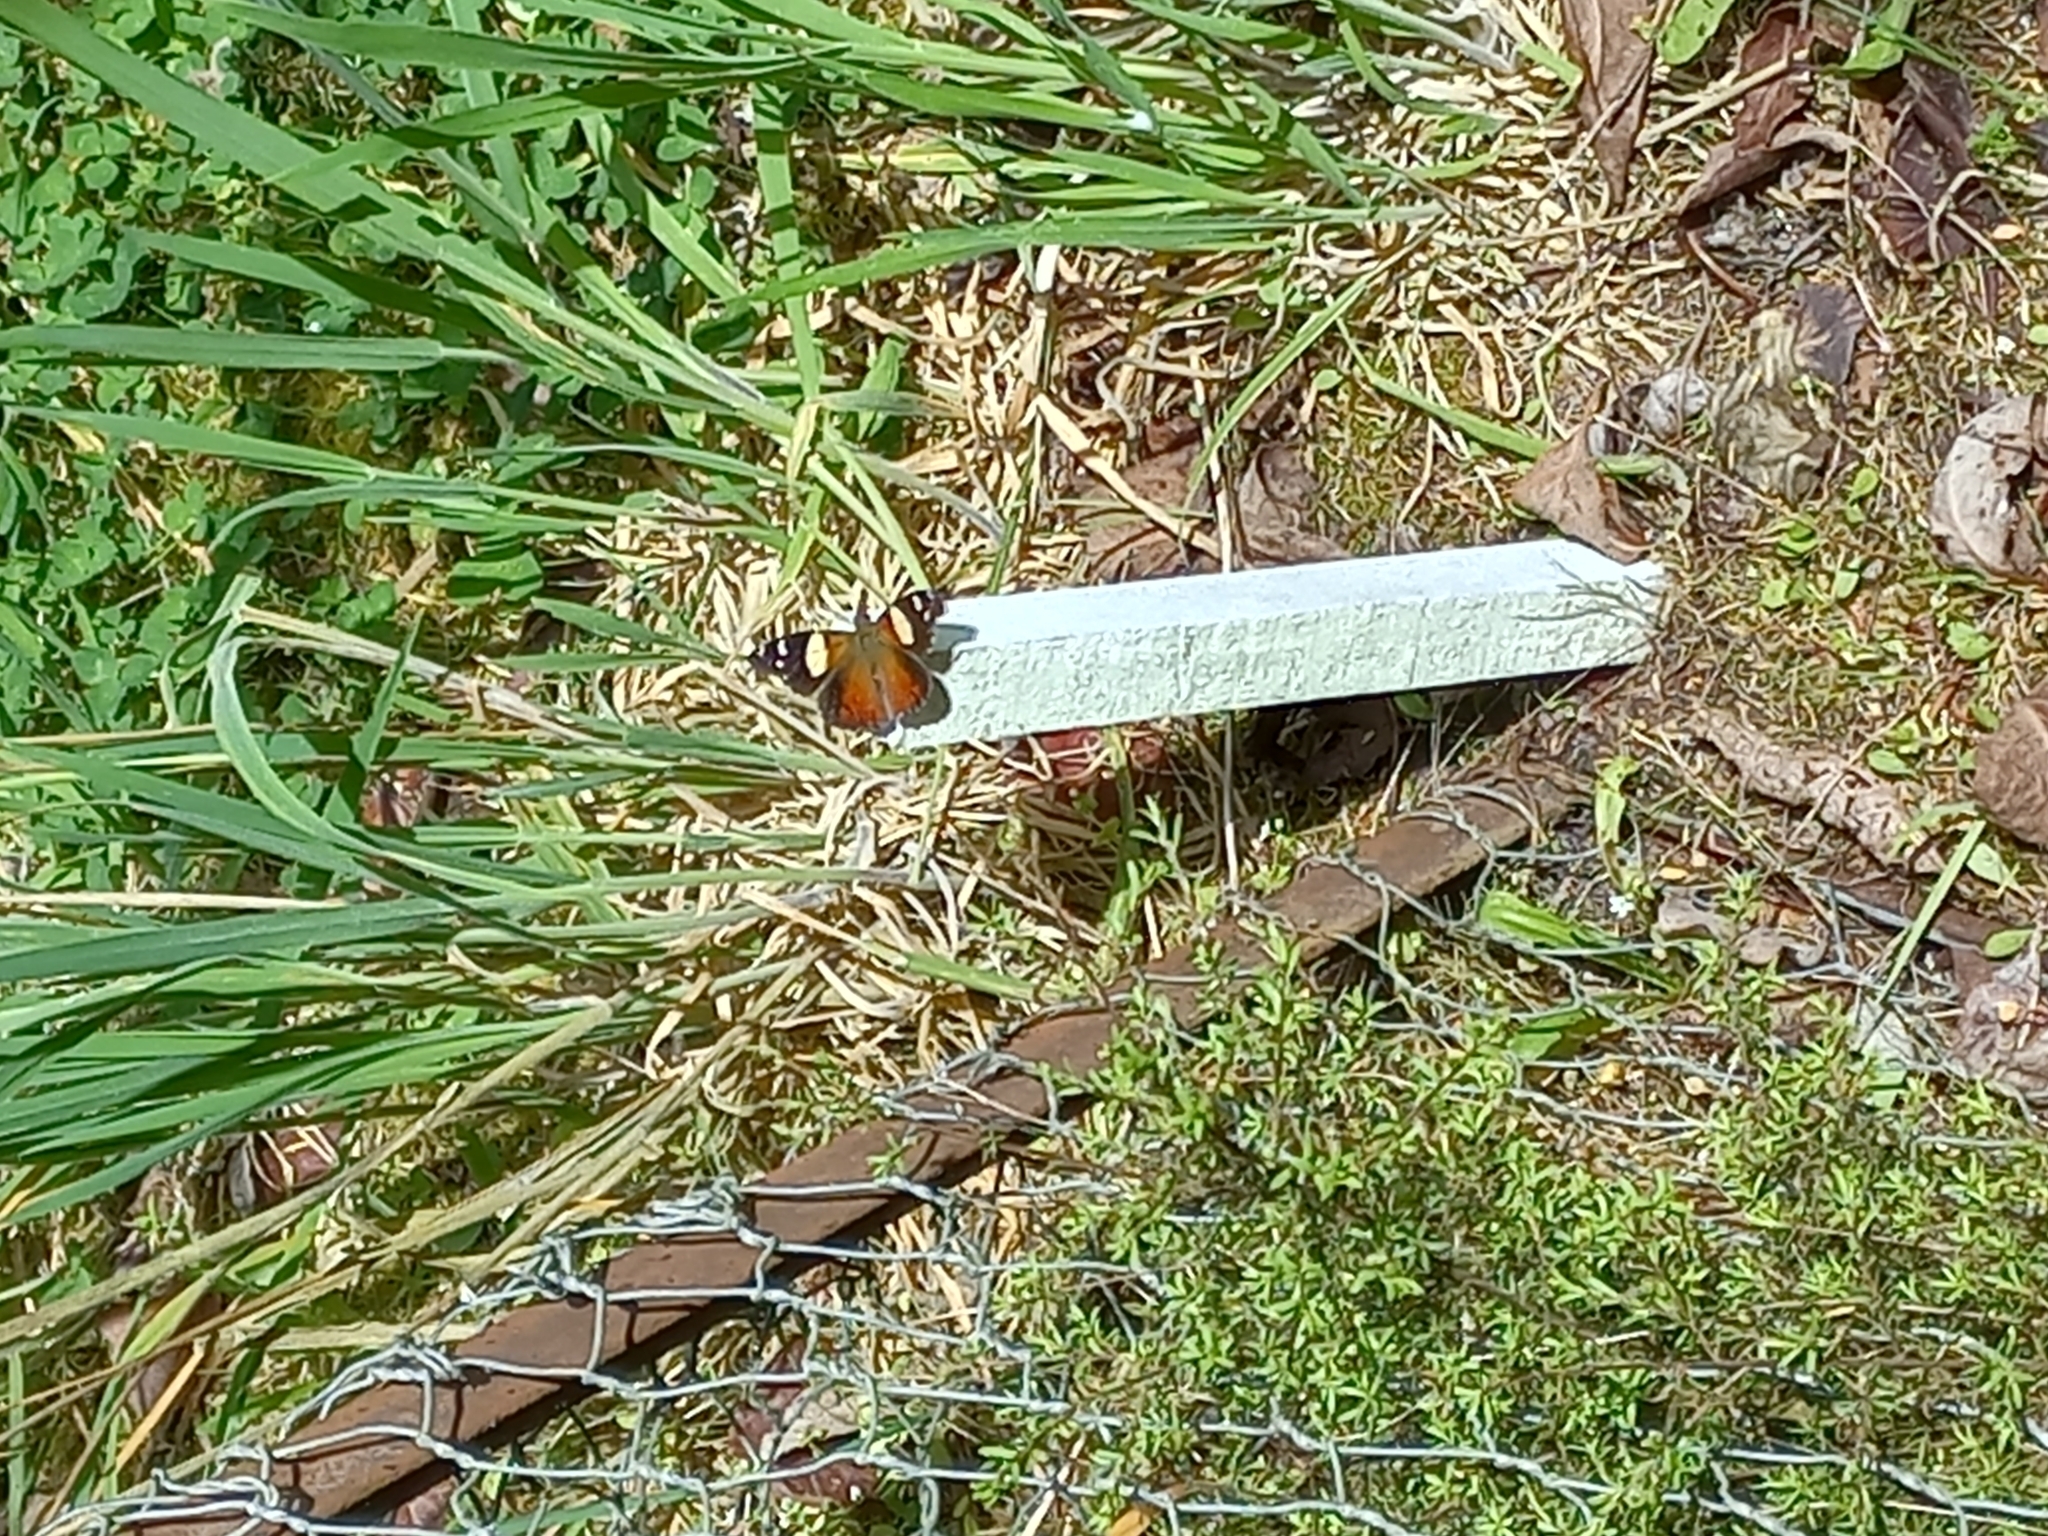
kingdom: Animalia
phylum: Arthropoda
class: Insecta
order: Lepidoptera
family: Nymphalidae
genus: Vanessa
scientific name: Vanessa itea
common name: Yellow admiral
